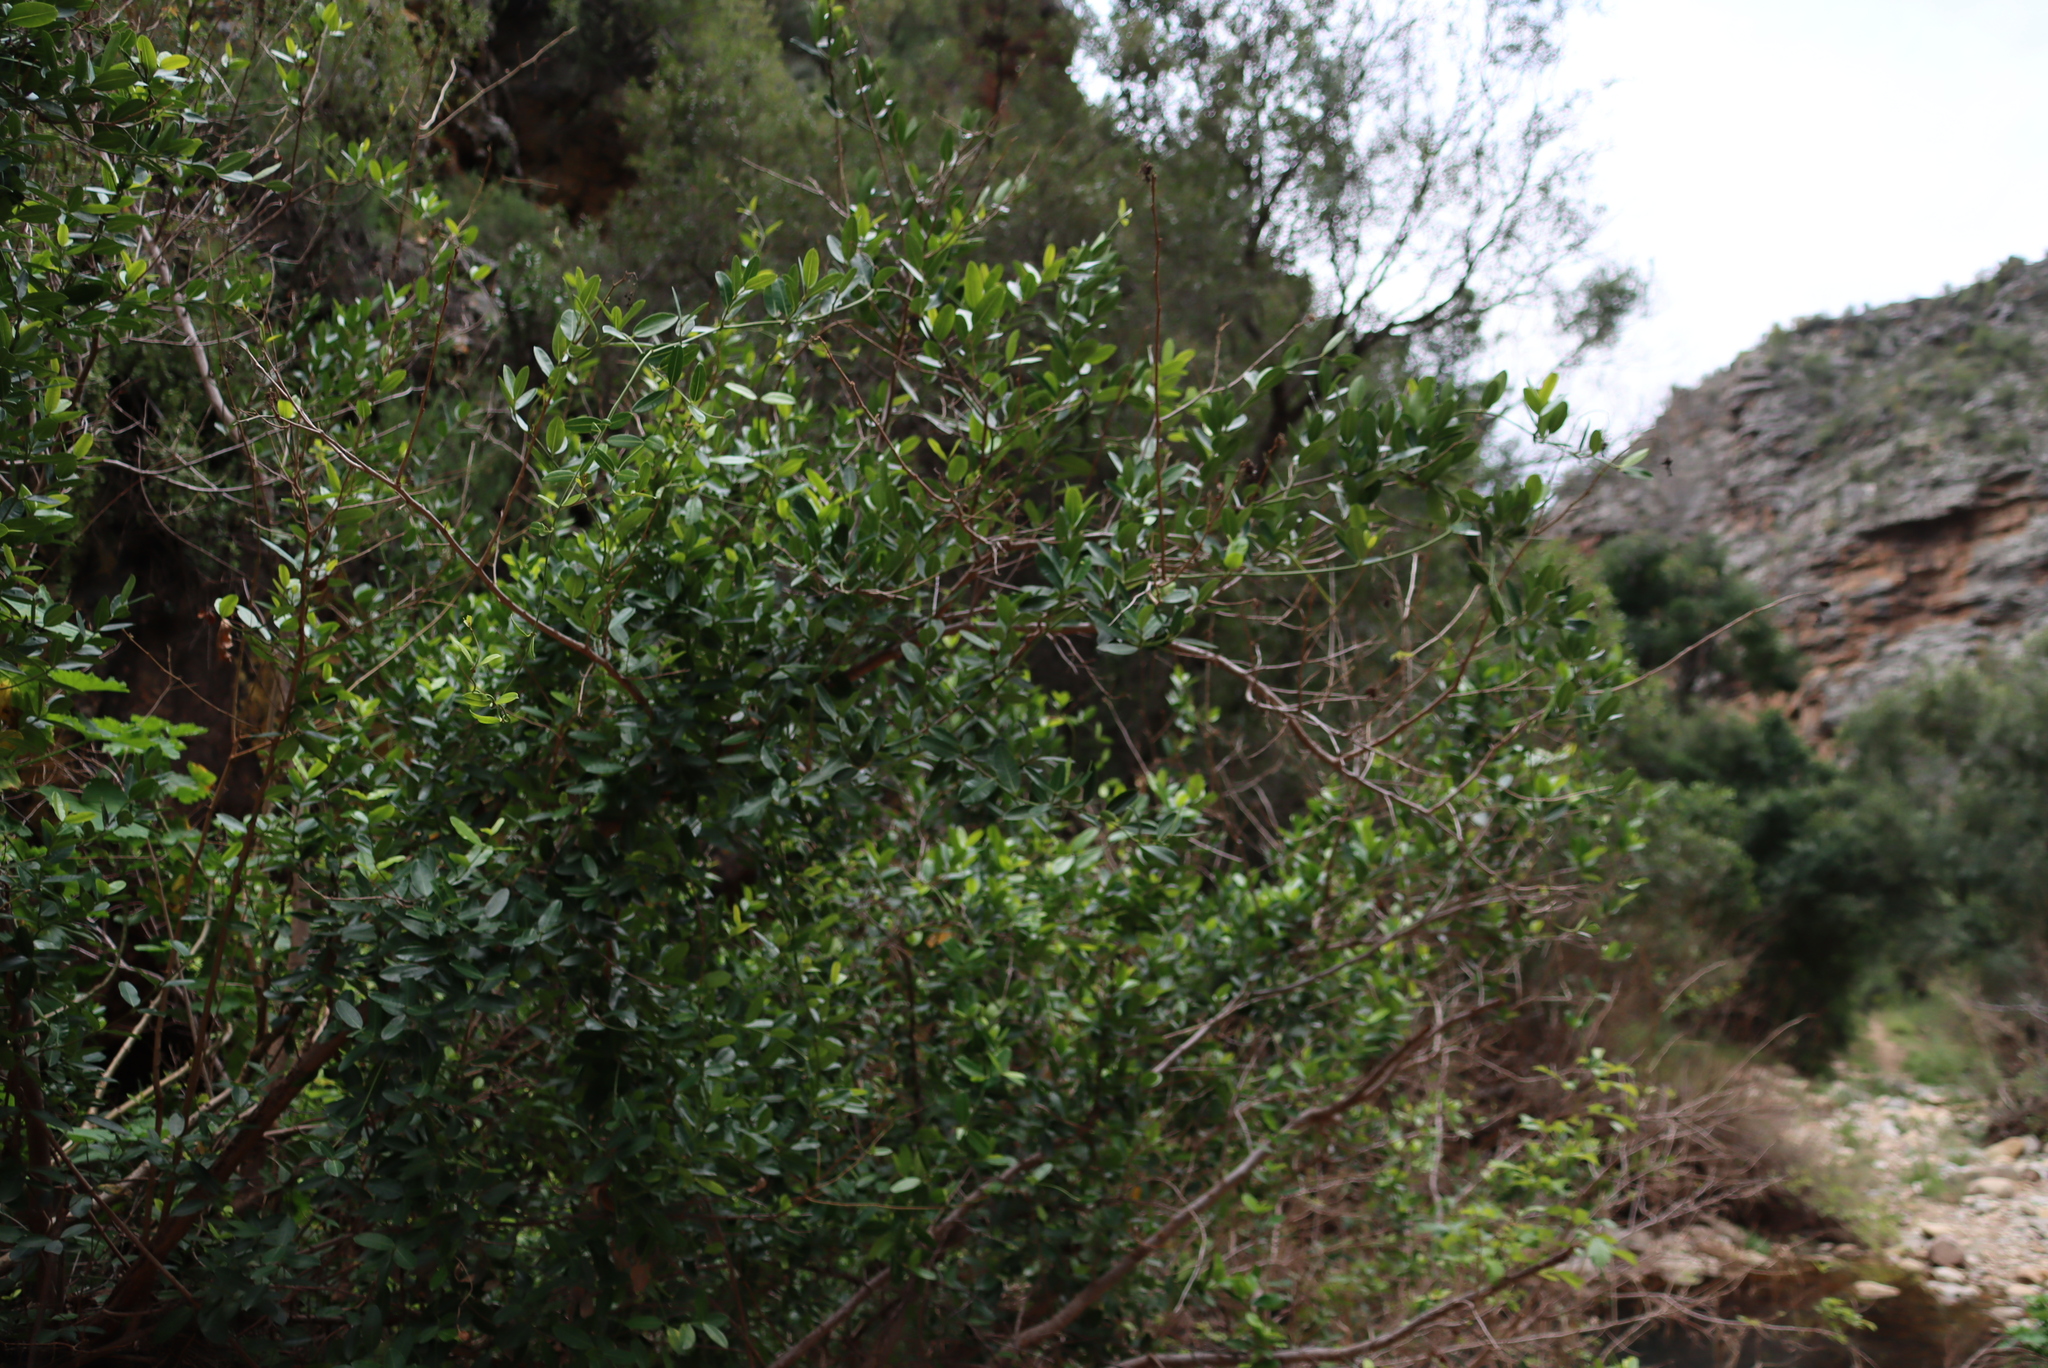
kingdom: Plantae
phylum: Tracheophyta
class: Magnoliopsida
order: Gentianales
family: Apocynaceae
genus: Secamone
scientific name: Secamone alpini
